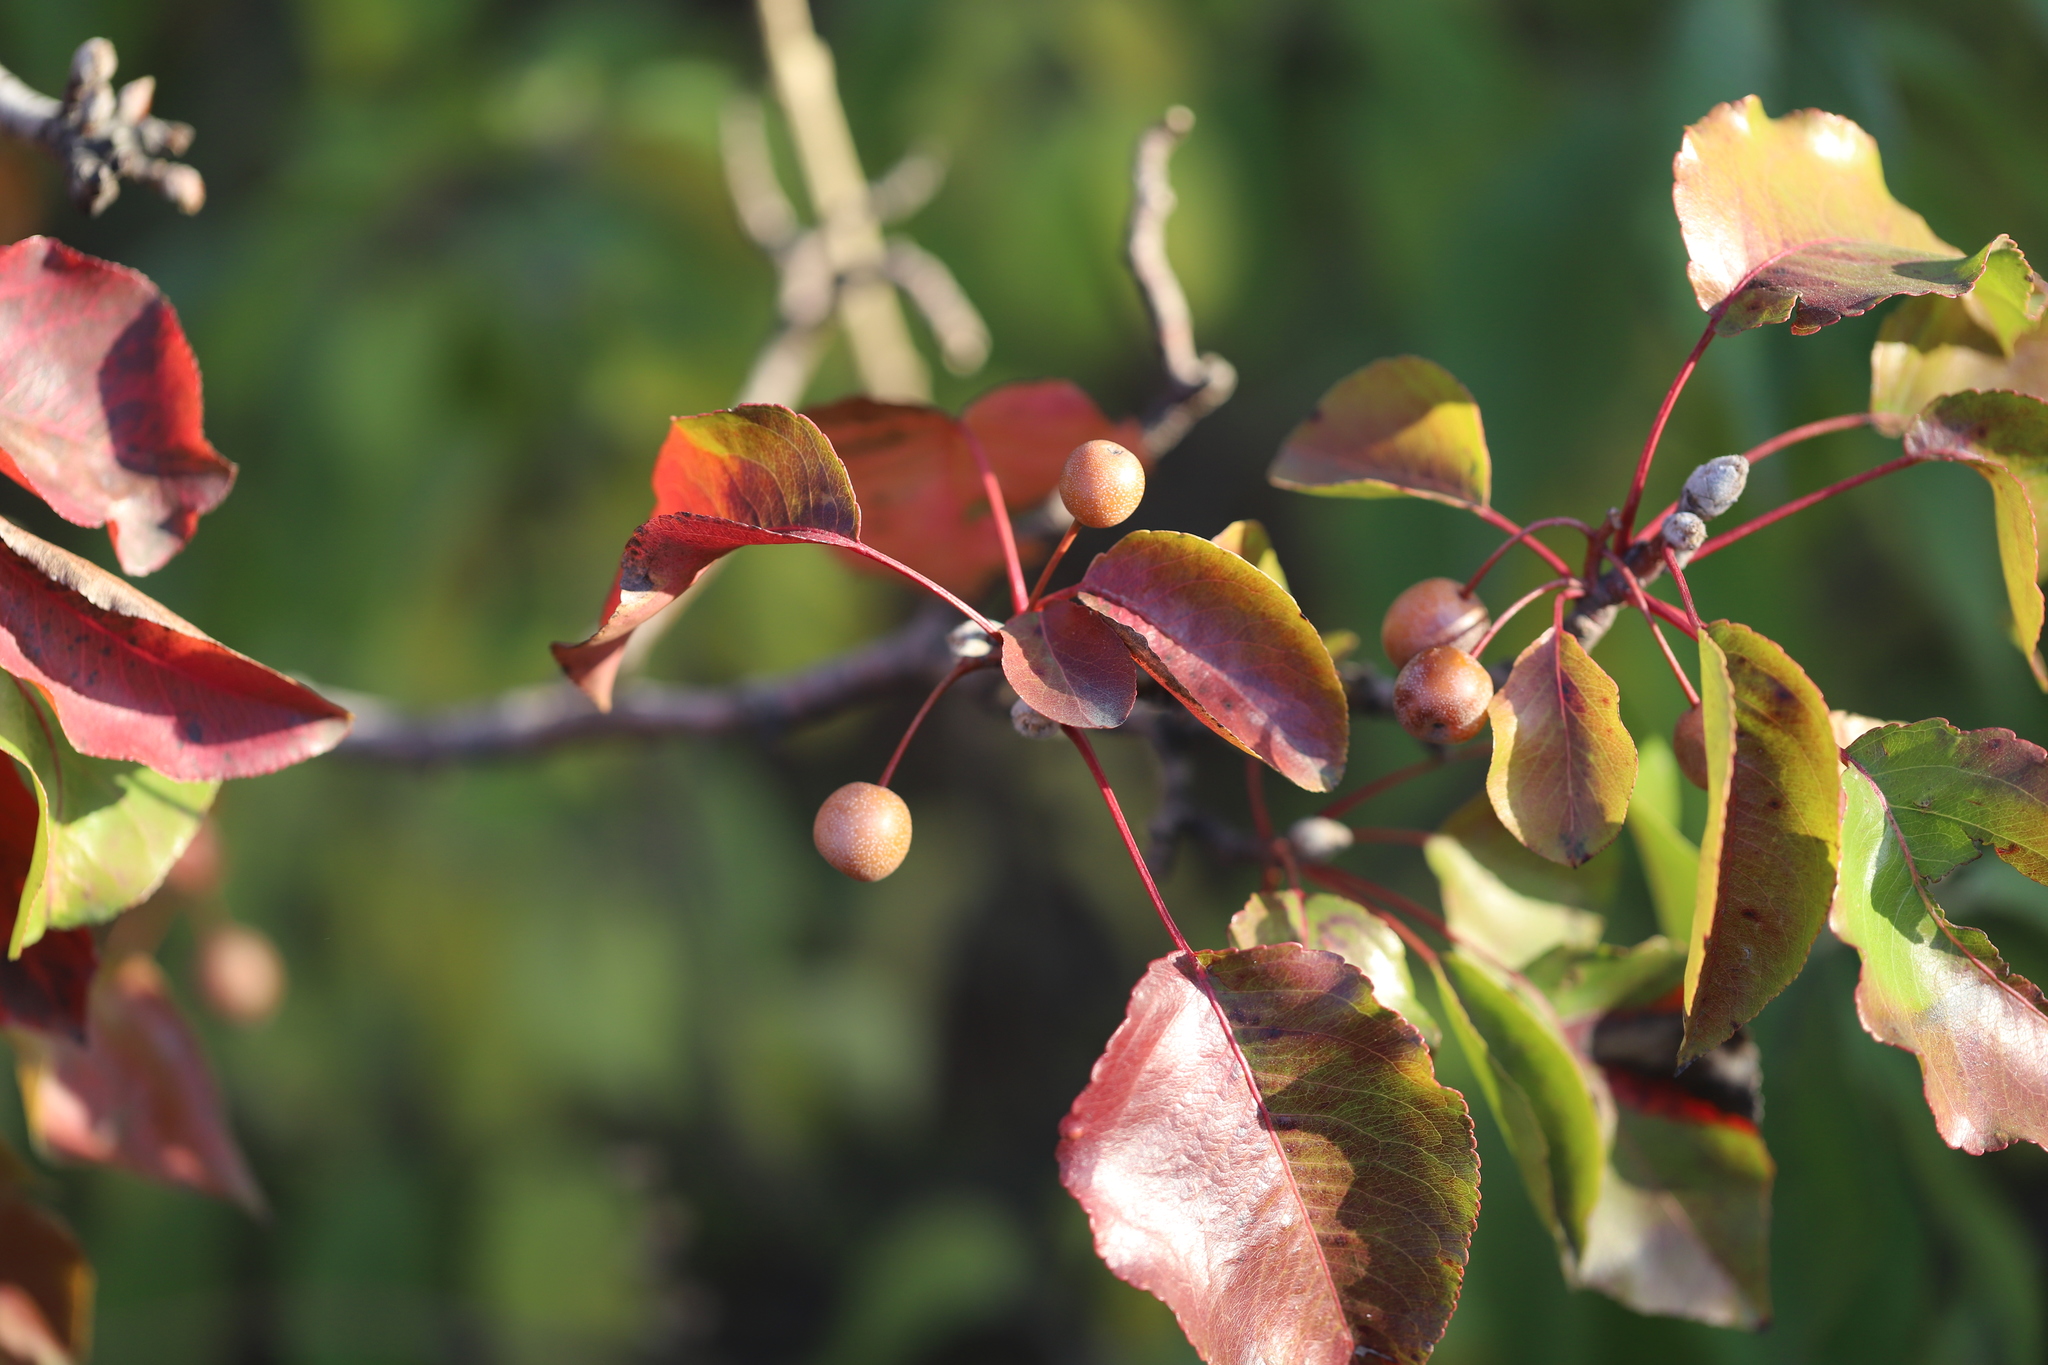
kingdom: Plantae
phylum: Tracheophyta
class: Magnoliopsida
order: Rosales
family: Rosaceae
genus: Pyrus
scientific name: Pyrus calleryana
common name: Callery pear
